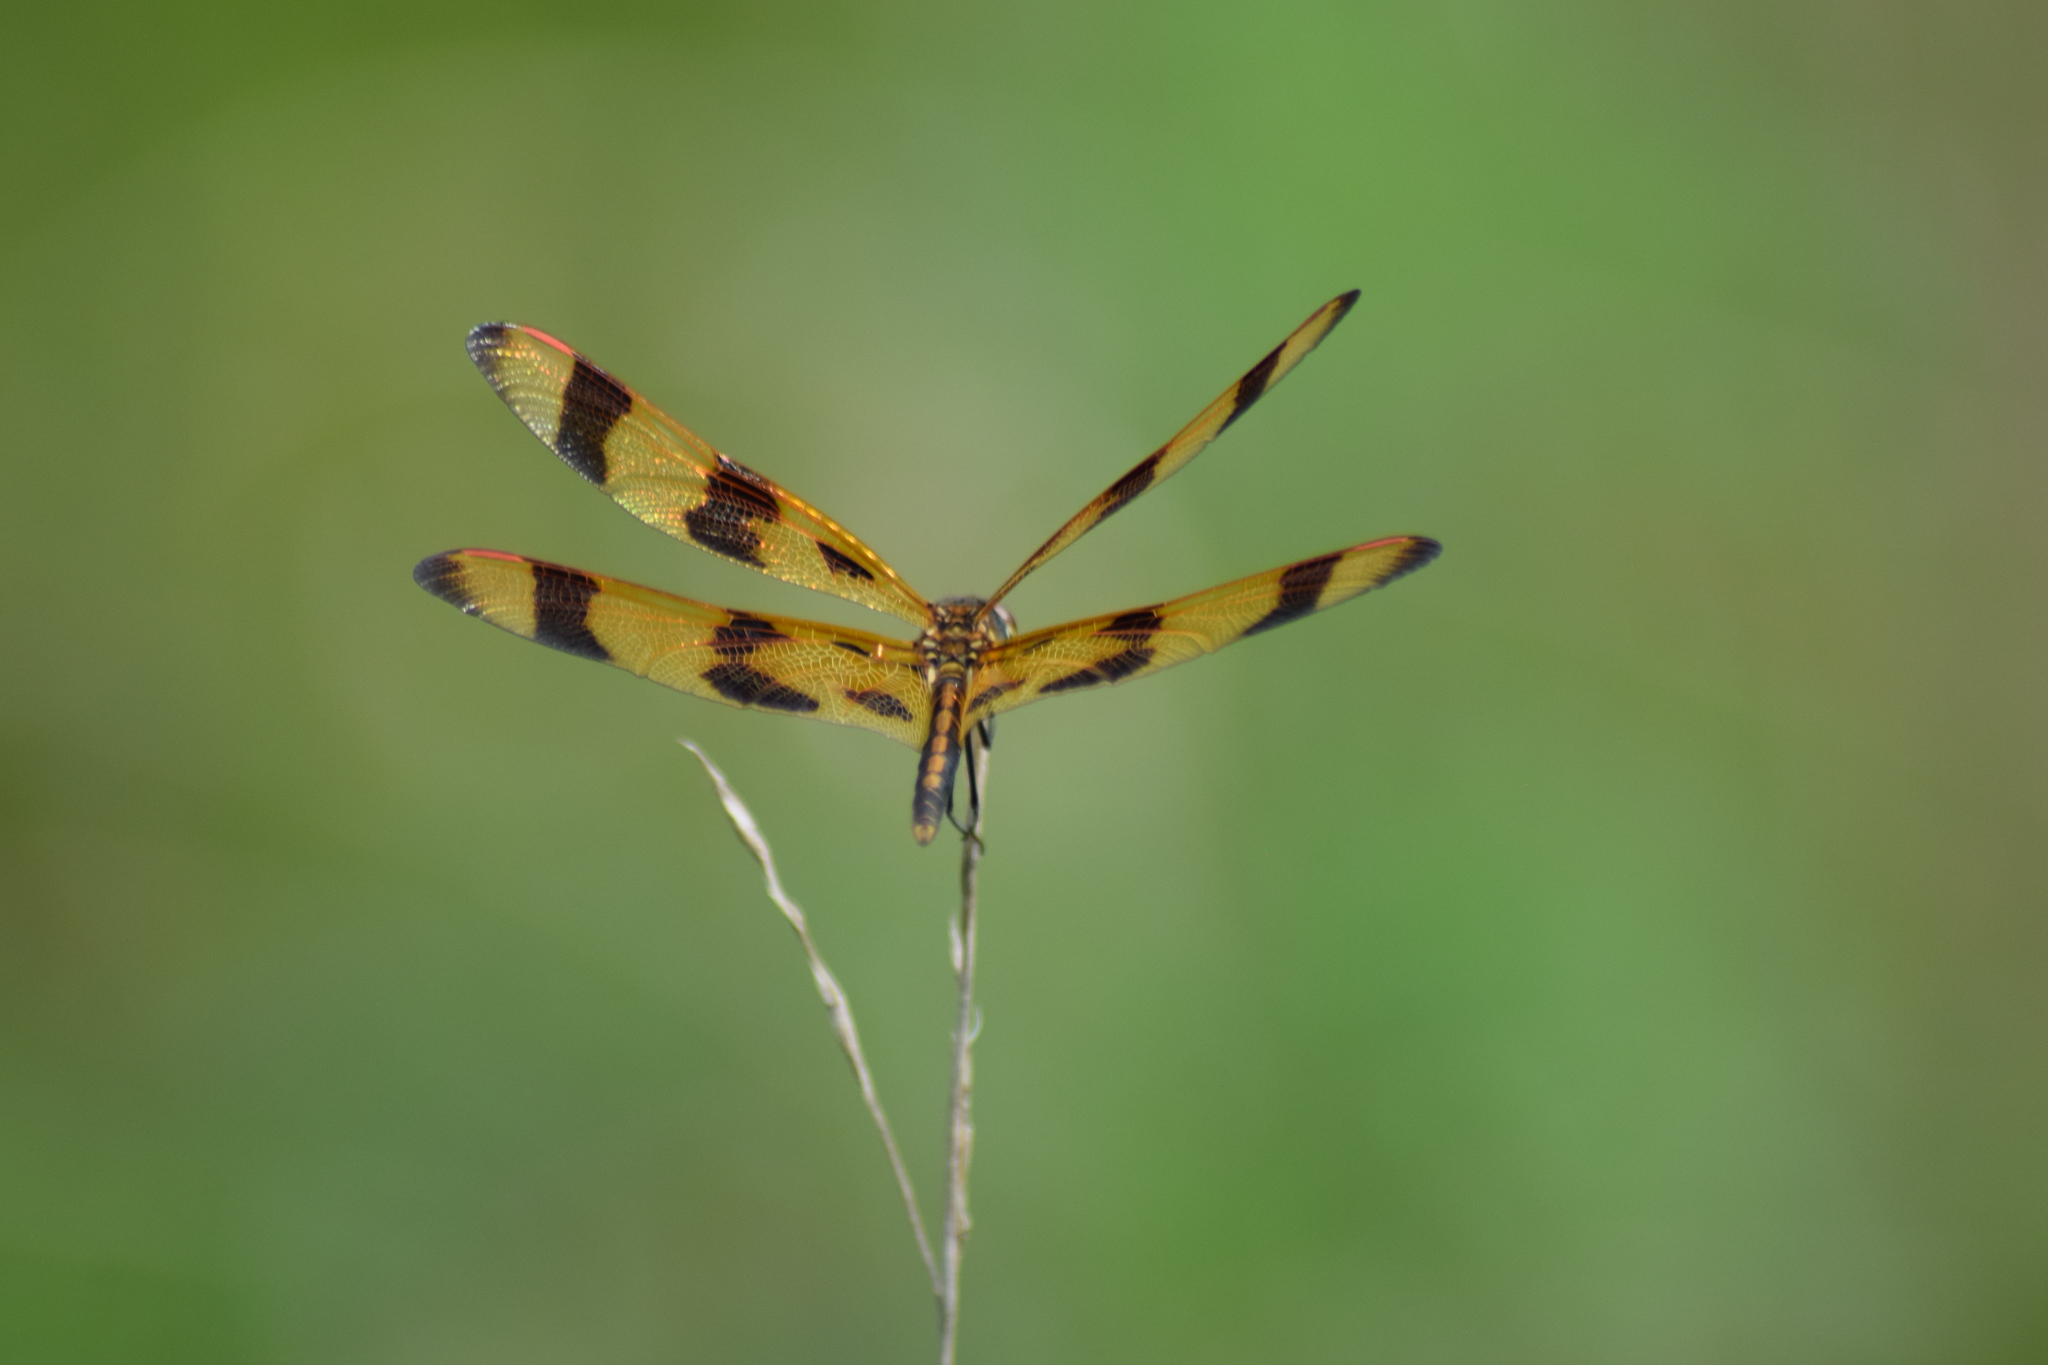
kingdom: Animalia
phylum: Arthropoda
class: Insecta
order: Odonata
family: Libellulidae
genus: Celithemis
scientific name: Celithemis eponina
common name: Halloween pennant
